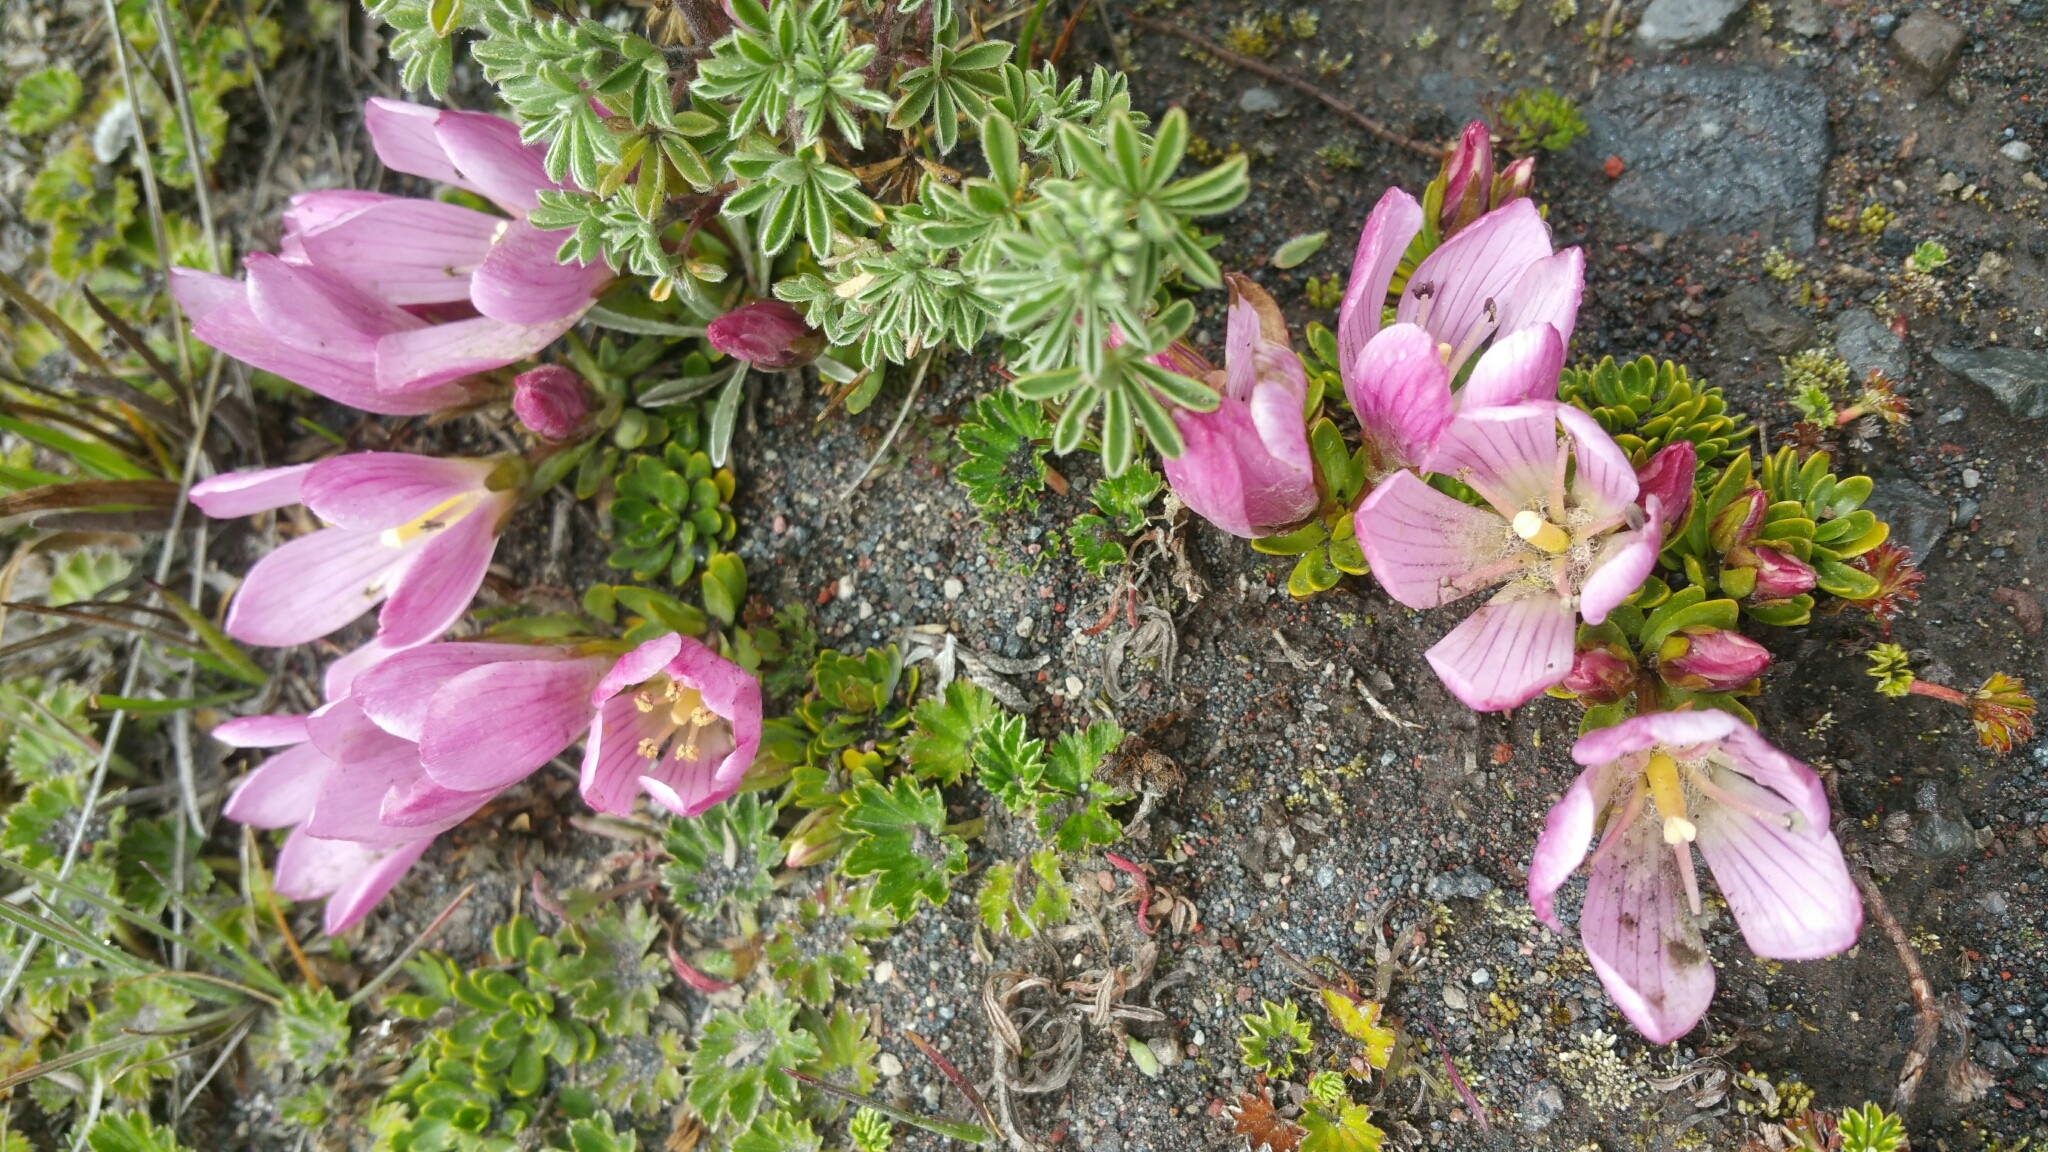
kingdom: Plantae
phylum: Tracheophyta
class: Magnoliopsida
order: Gentianales
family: Gentianaceae
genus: Gentianella
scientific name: Gentianella cerastioides
